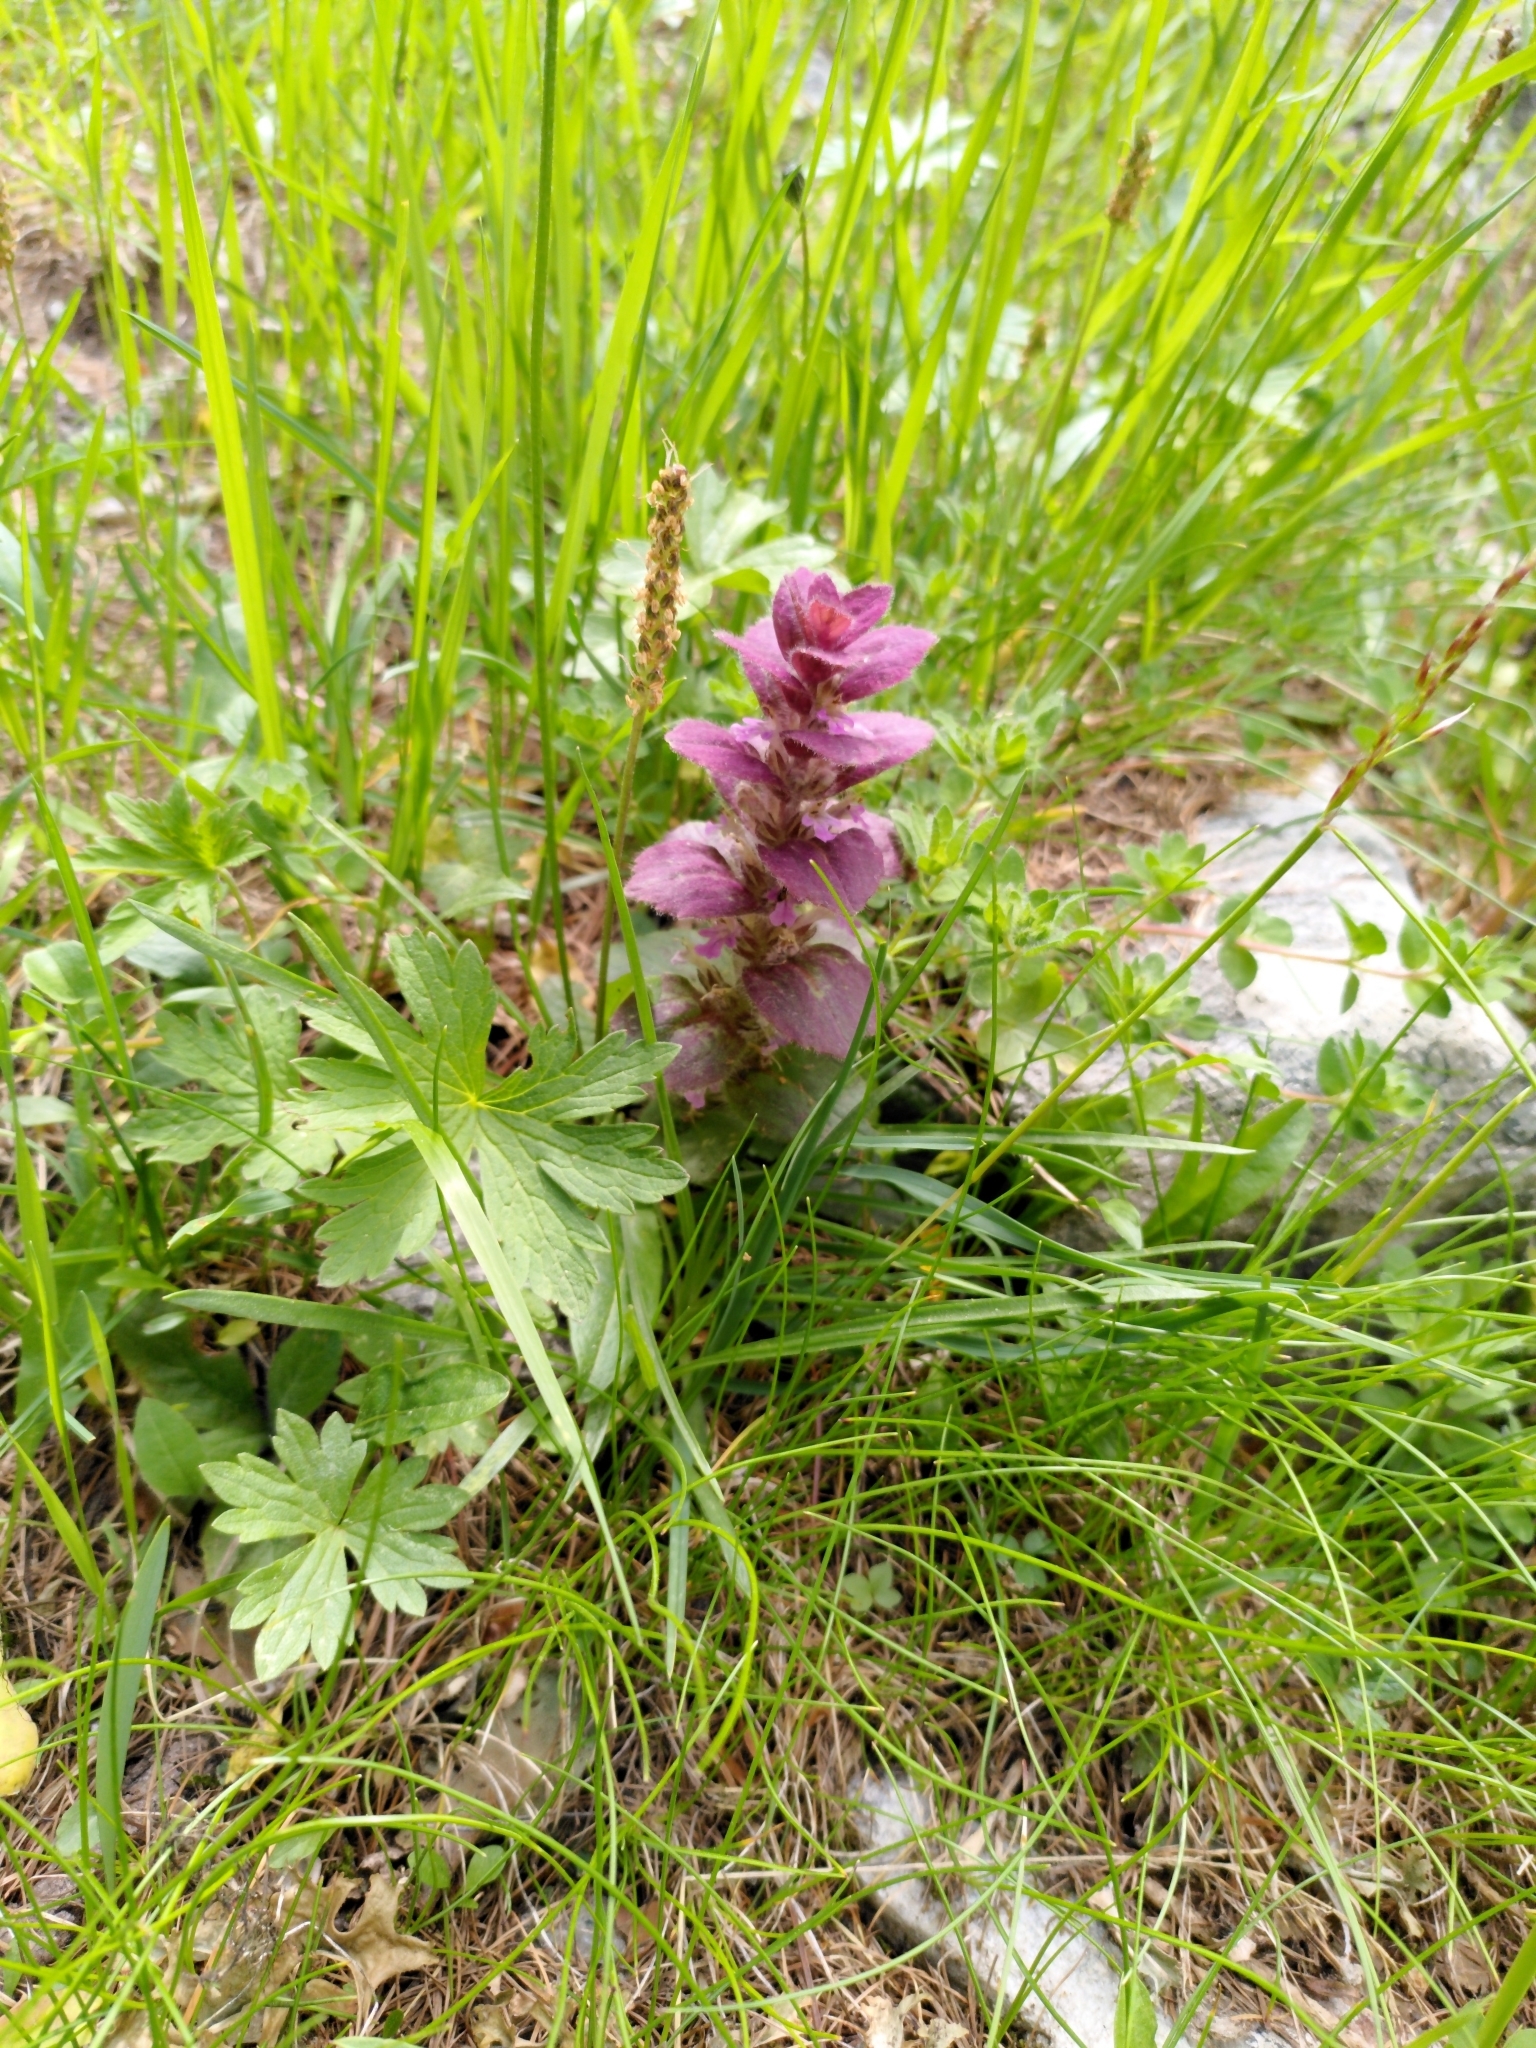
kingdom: Plantae
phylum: Tracheophyta
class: Magnoliopsida
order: Lamiales
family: Lamiaceae
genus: Ajuga
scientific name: Ajuga pyramidalis
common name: Pyramid bugle
